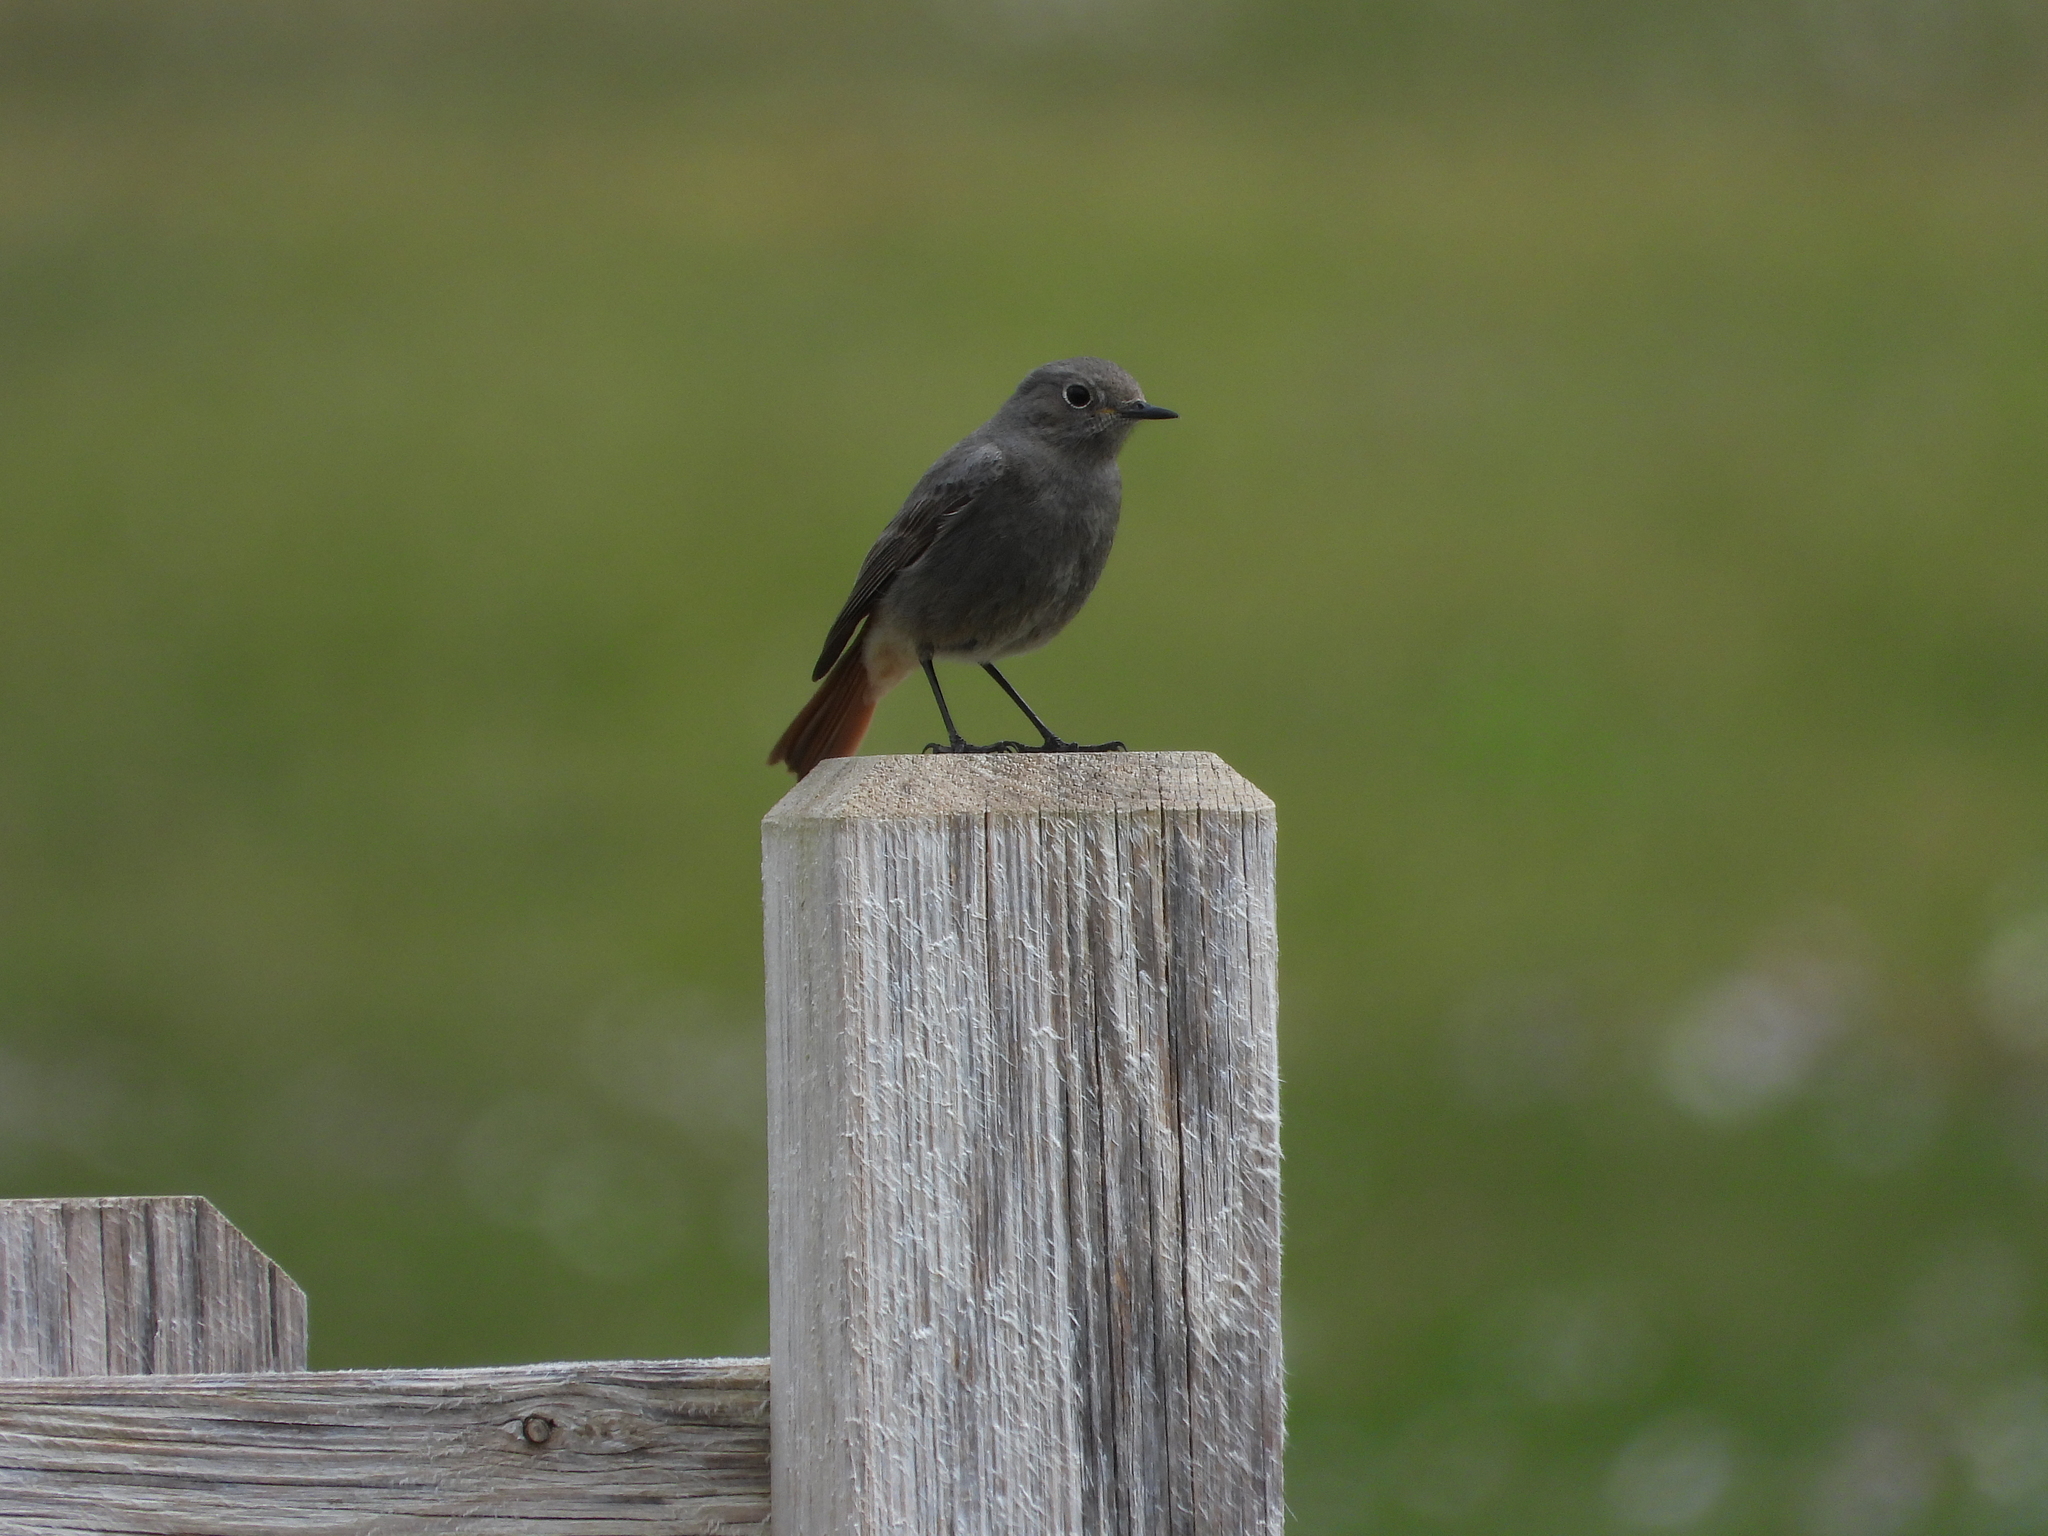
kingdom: Animalia
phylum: Chordata
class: Aves
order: Passeriformes
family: Muscicapidae
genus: Phoenicurus
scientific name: Phoenicurus ochruros
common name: Black redstart
